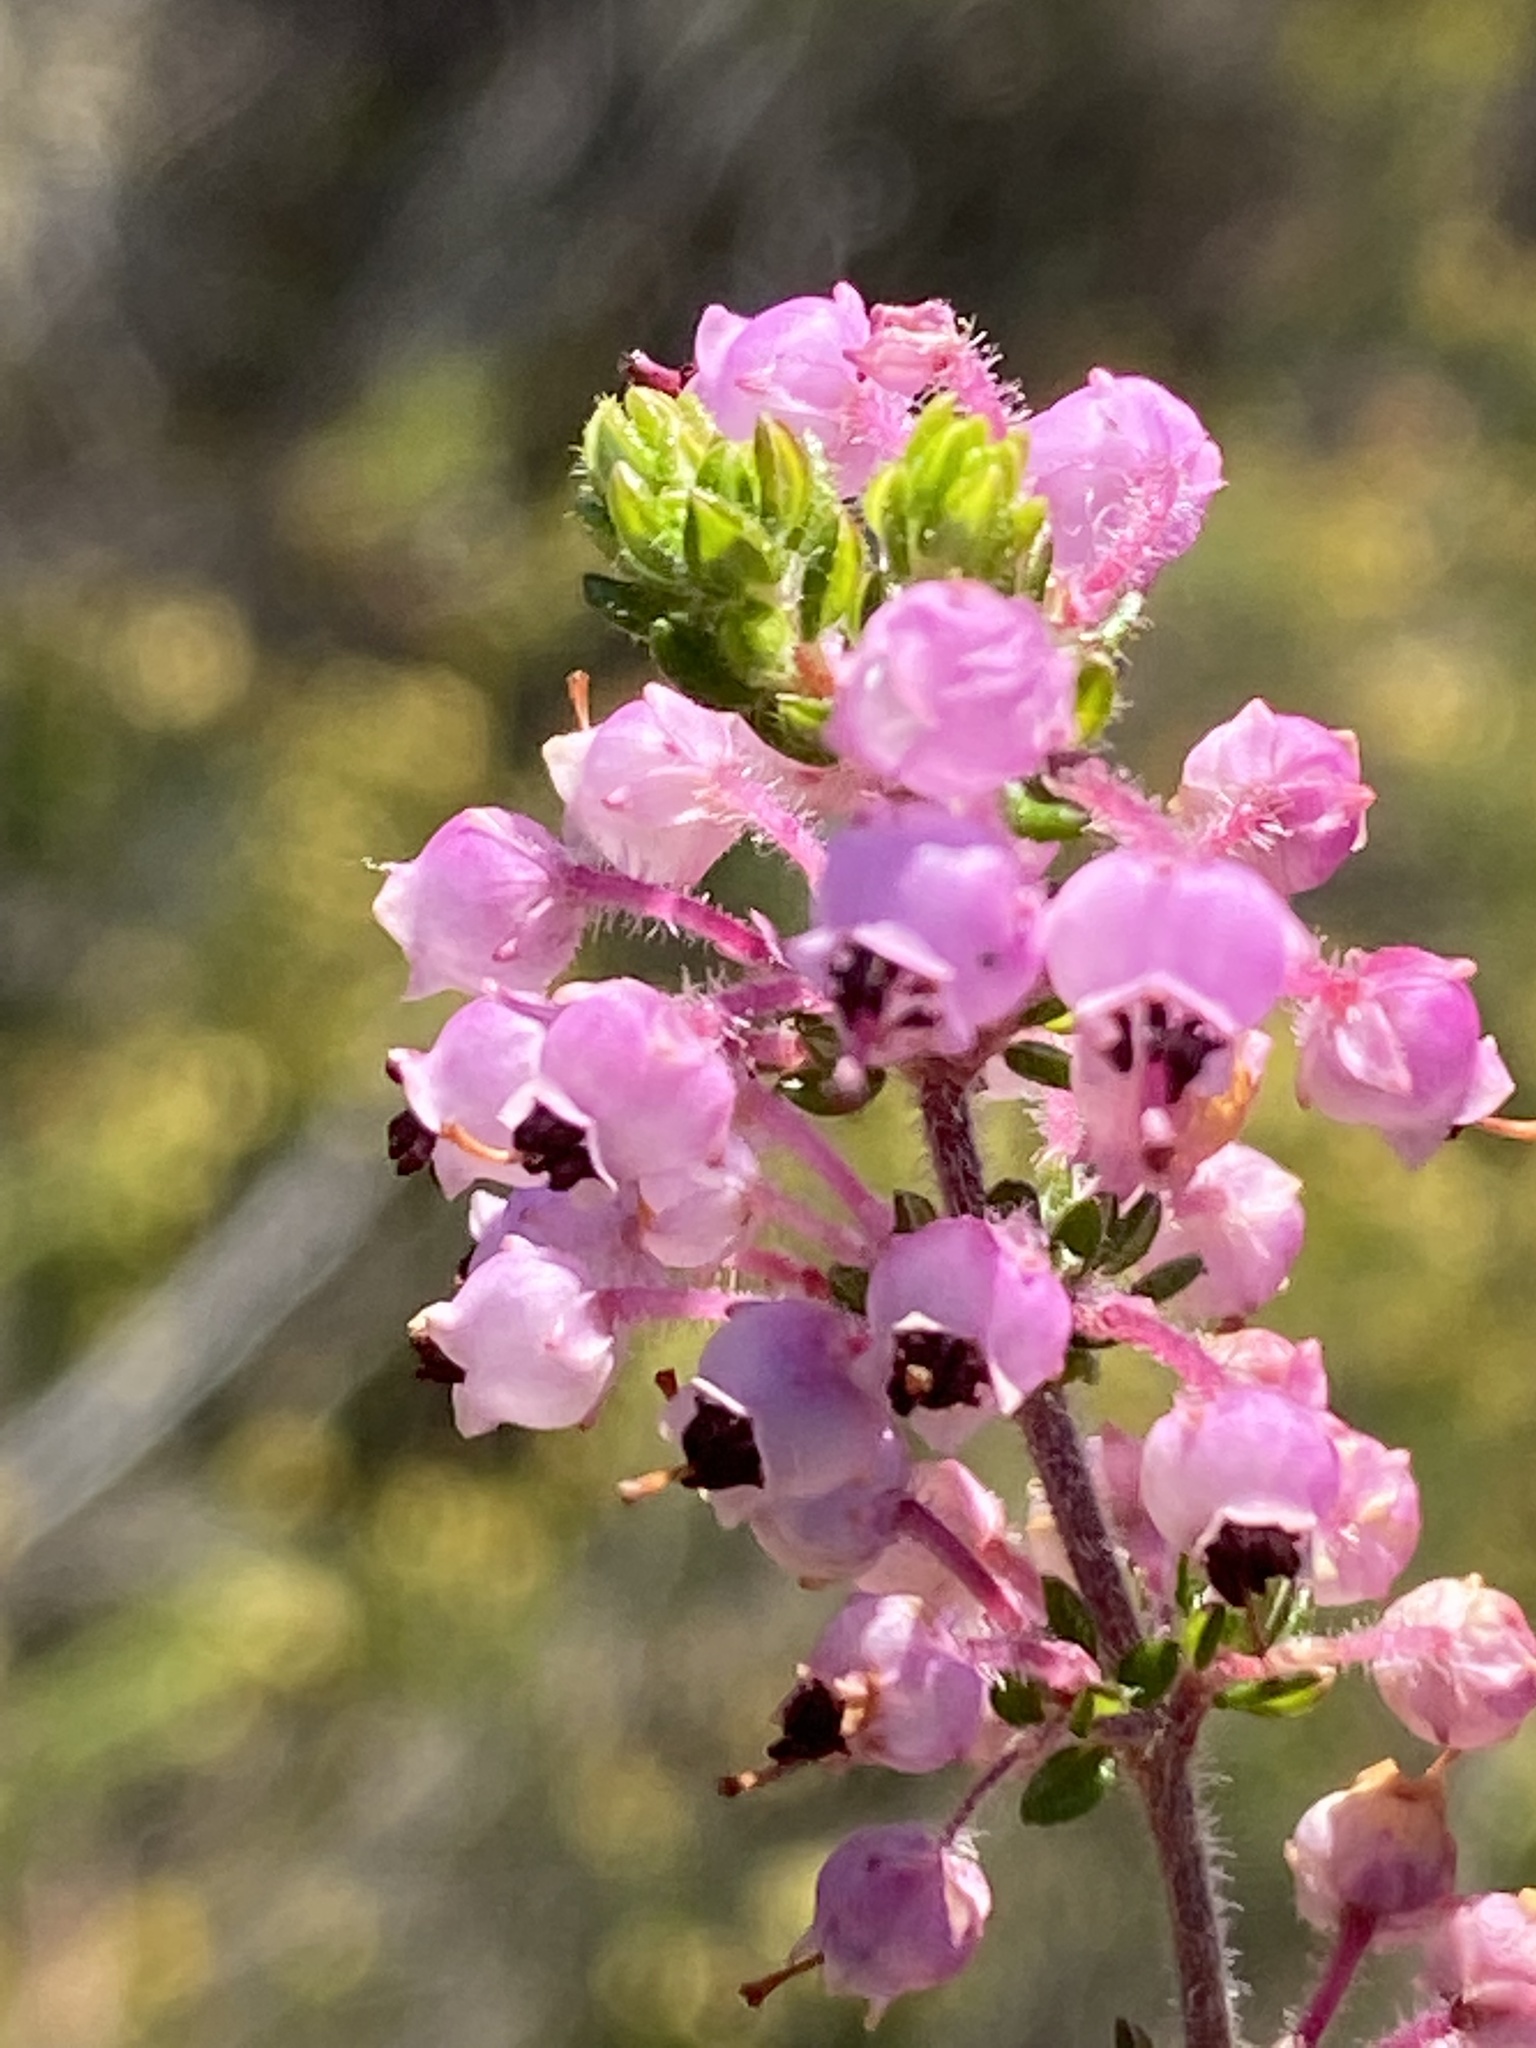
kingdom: Plantae
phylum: Tracheophyta
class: Magnoliopsida
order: Ericales
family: Ericaceae
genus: Erica
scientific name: Erica grata
